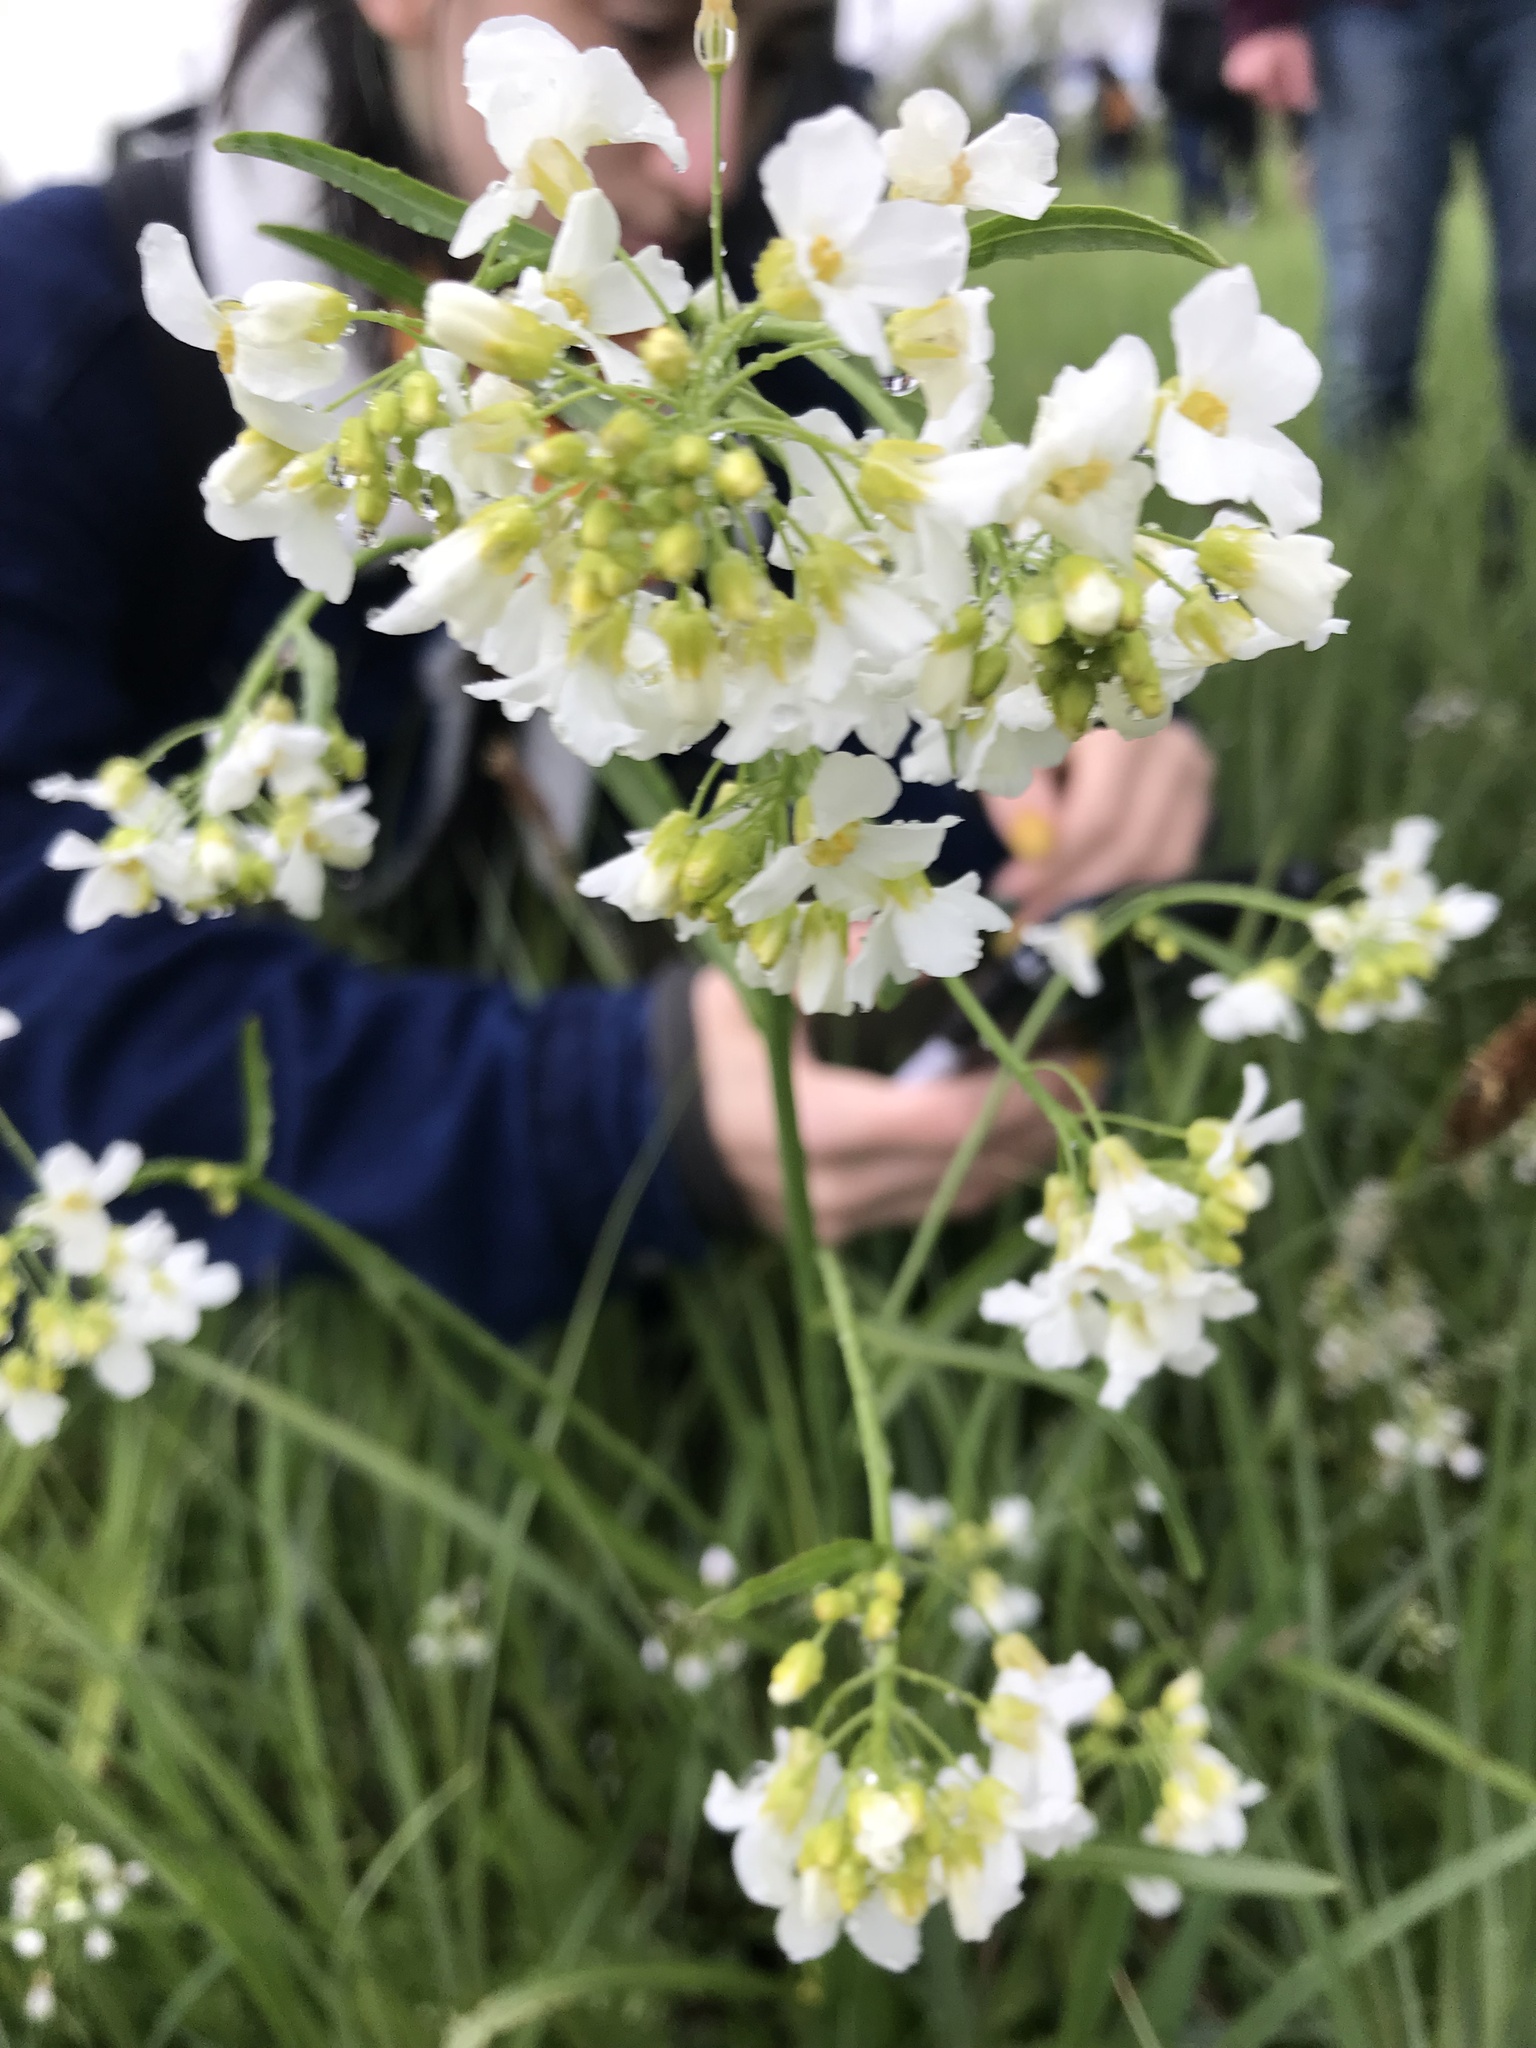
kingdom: Plantae
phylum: Tracheophyta
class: Magnoliopsida
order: Brassicales
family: Brassicaceae
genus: Armoracia
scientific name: Armoracia macrocarpa
